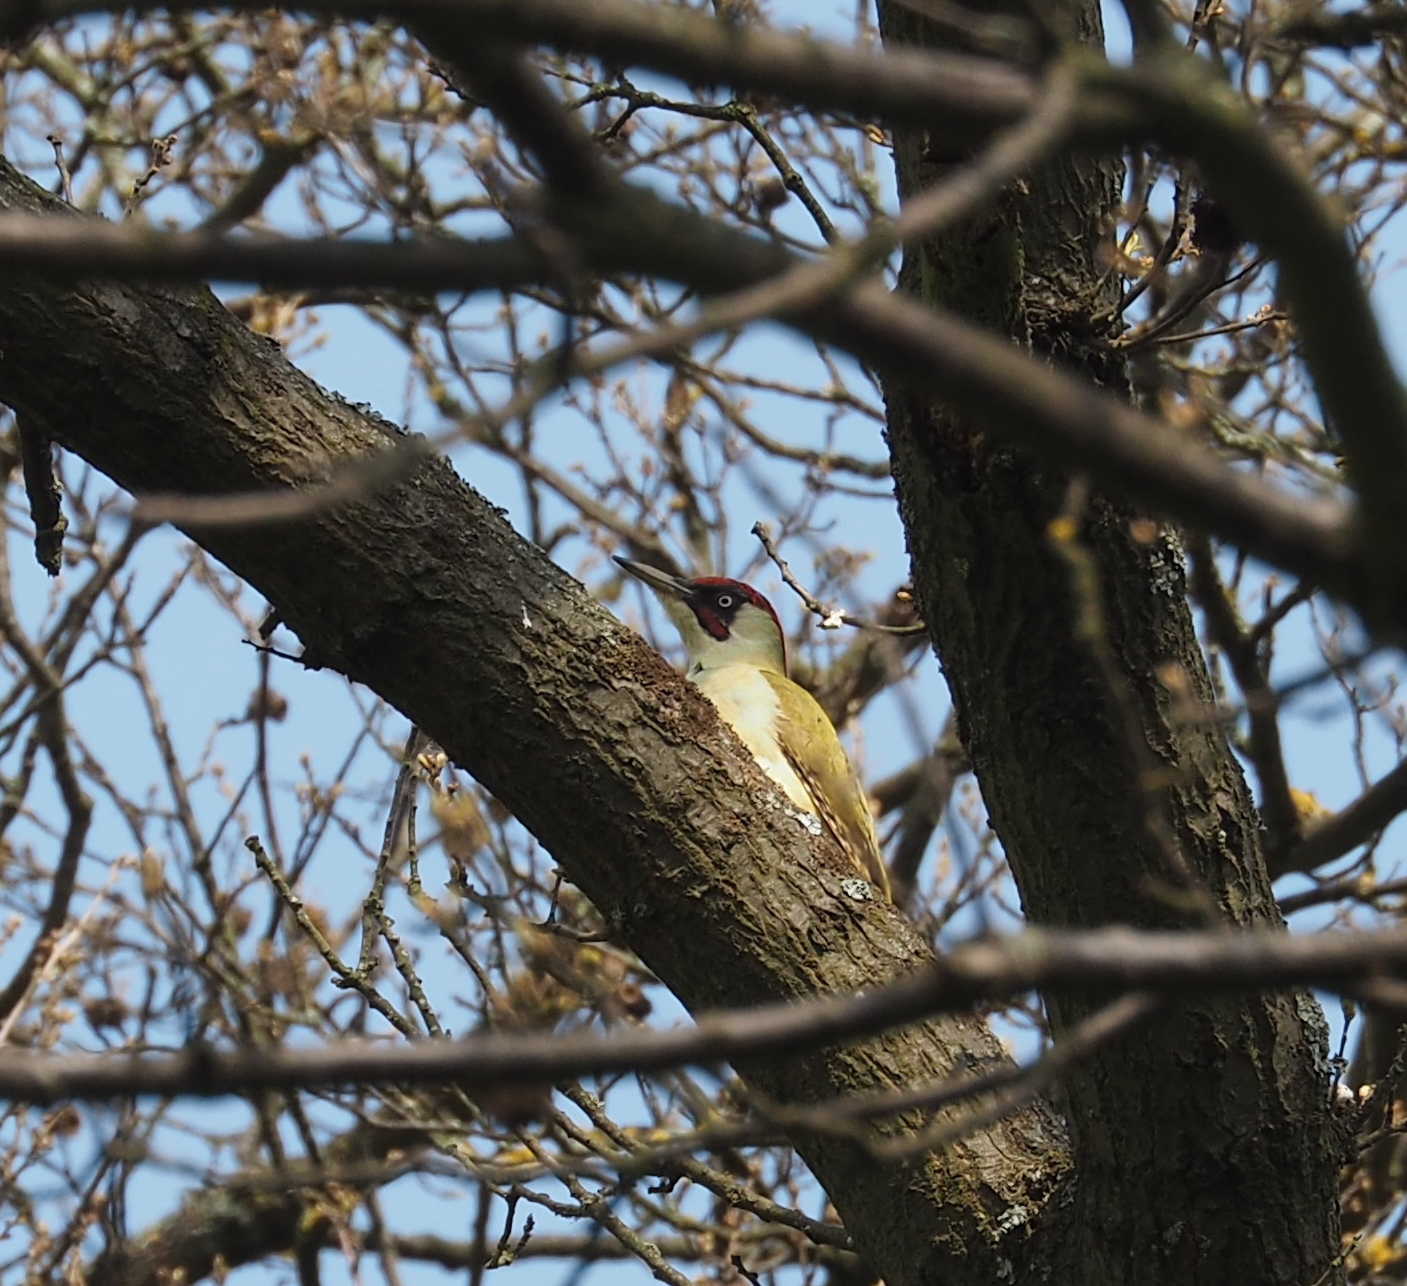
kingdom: Animalia
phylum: Chordata
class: Aves
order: Piciformes
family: Picidae
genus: Picus
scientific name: Picus viridis
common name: European green woodpecker
